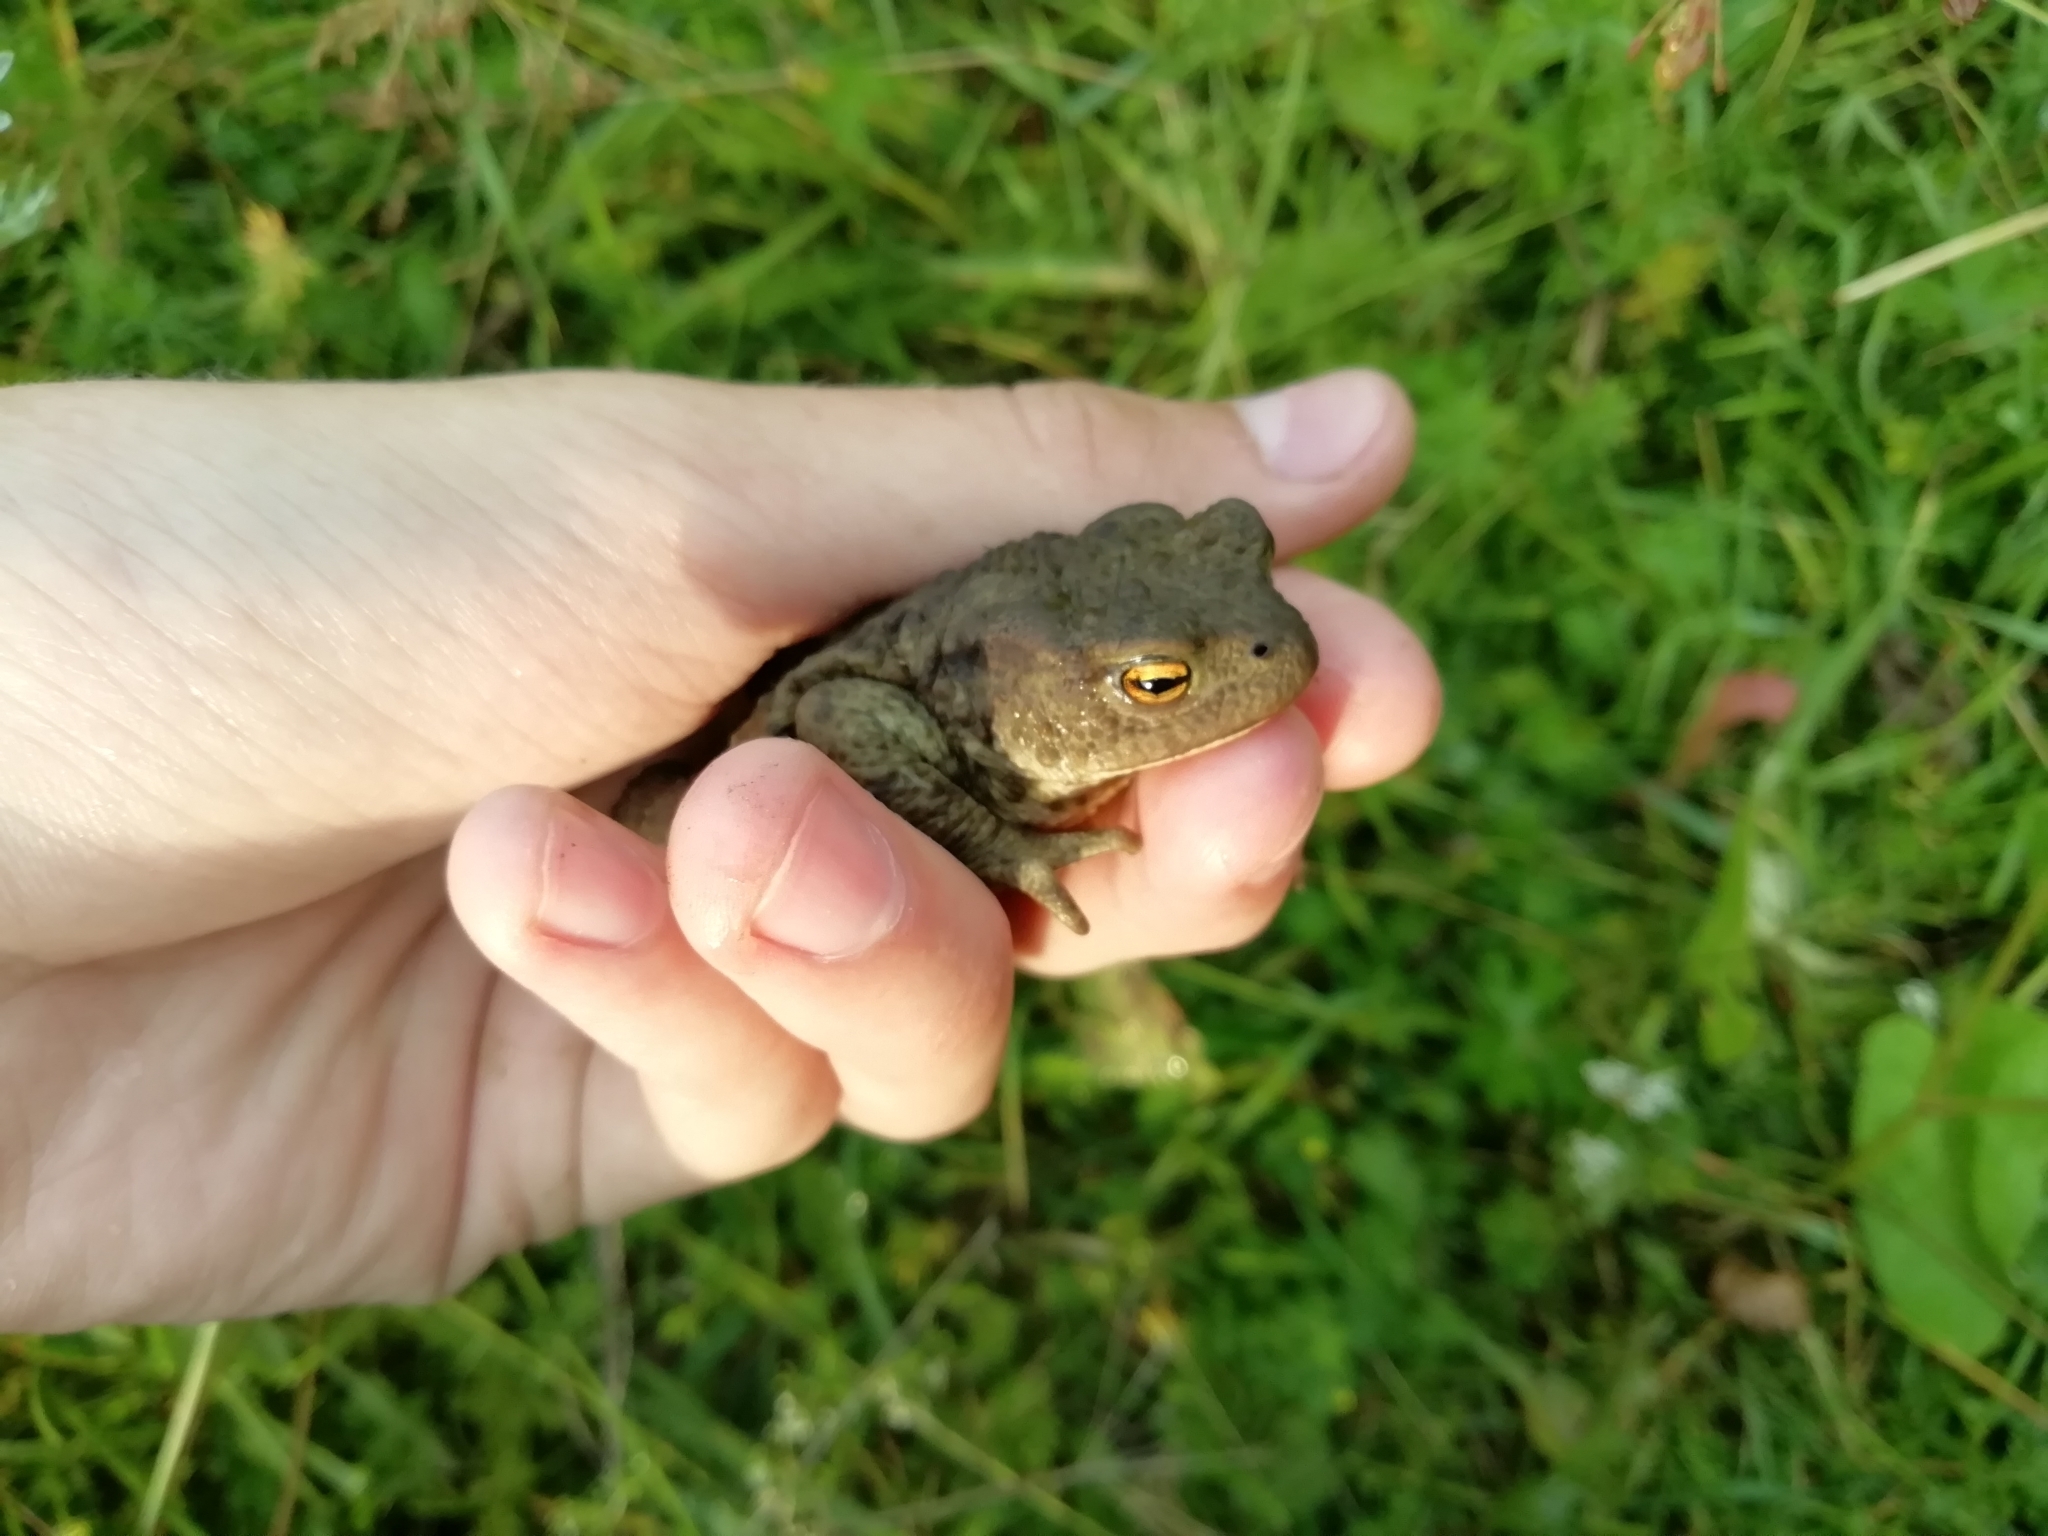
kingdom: Animalia
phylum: Chordata
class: Amphibia
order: Anura
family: Bufonidae
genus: Bufo
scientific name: Bufo bufo
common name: Common toad
